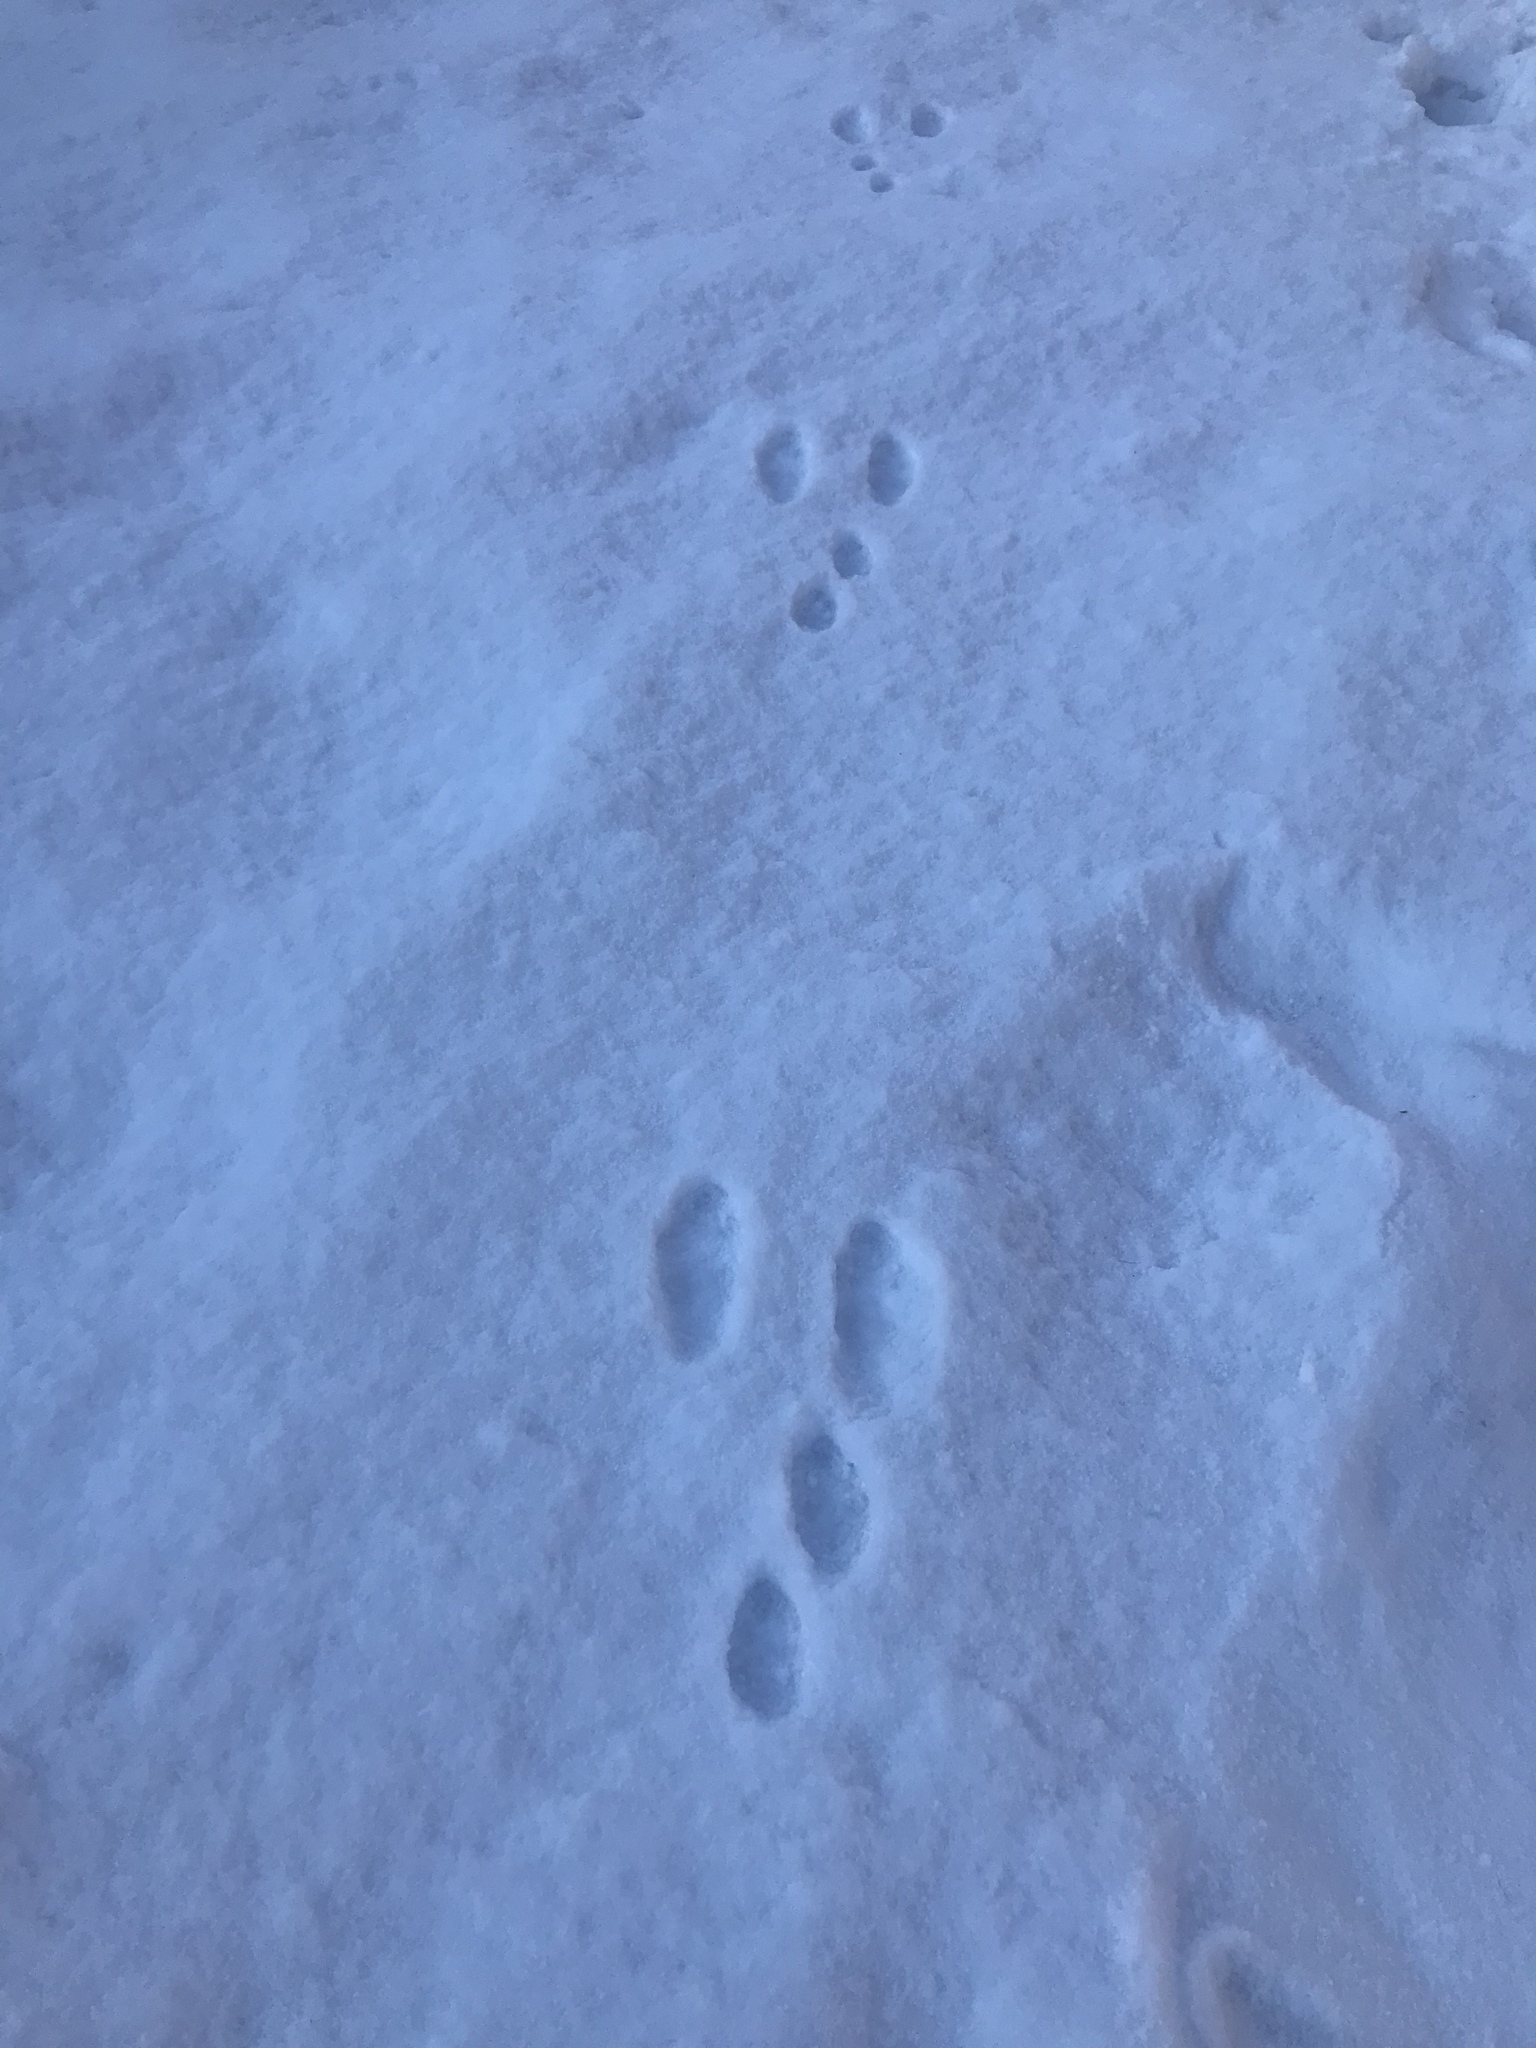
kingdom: Animalia
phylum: Chordata
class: Mammalia
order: Lagomorpha
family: Leporidae
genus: Lepus
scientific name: Lepus americanus
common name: Snowshoe hare
